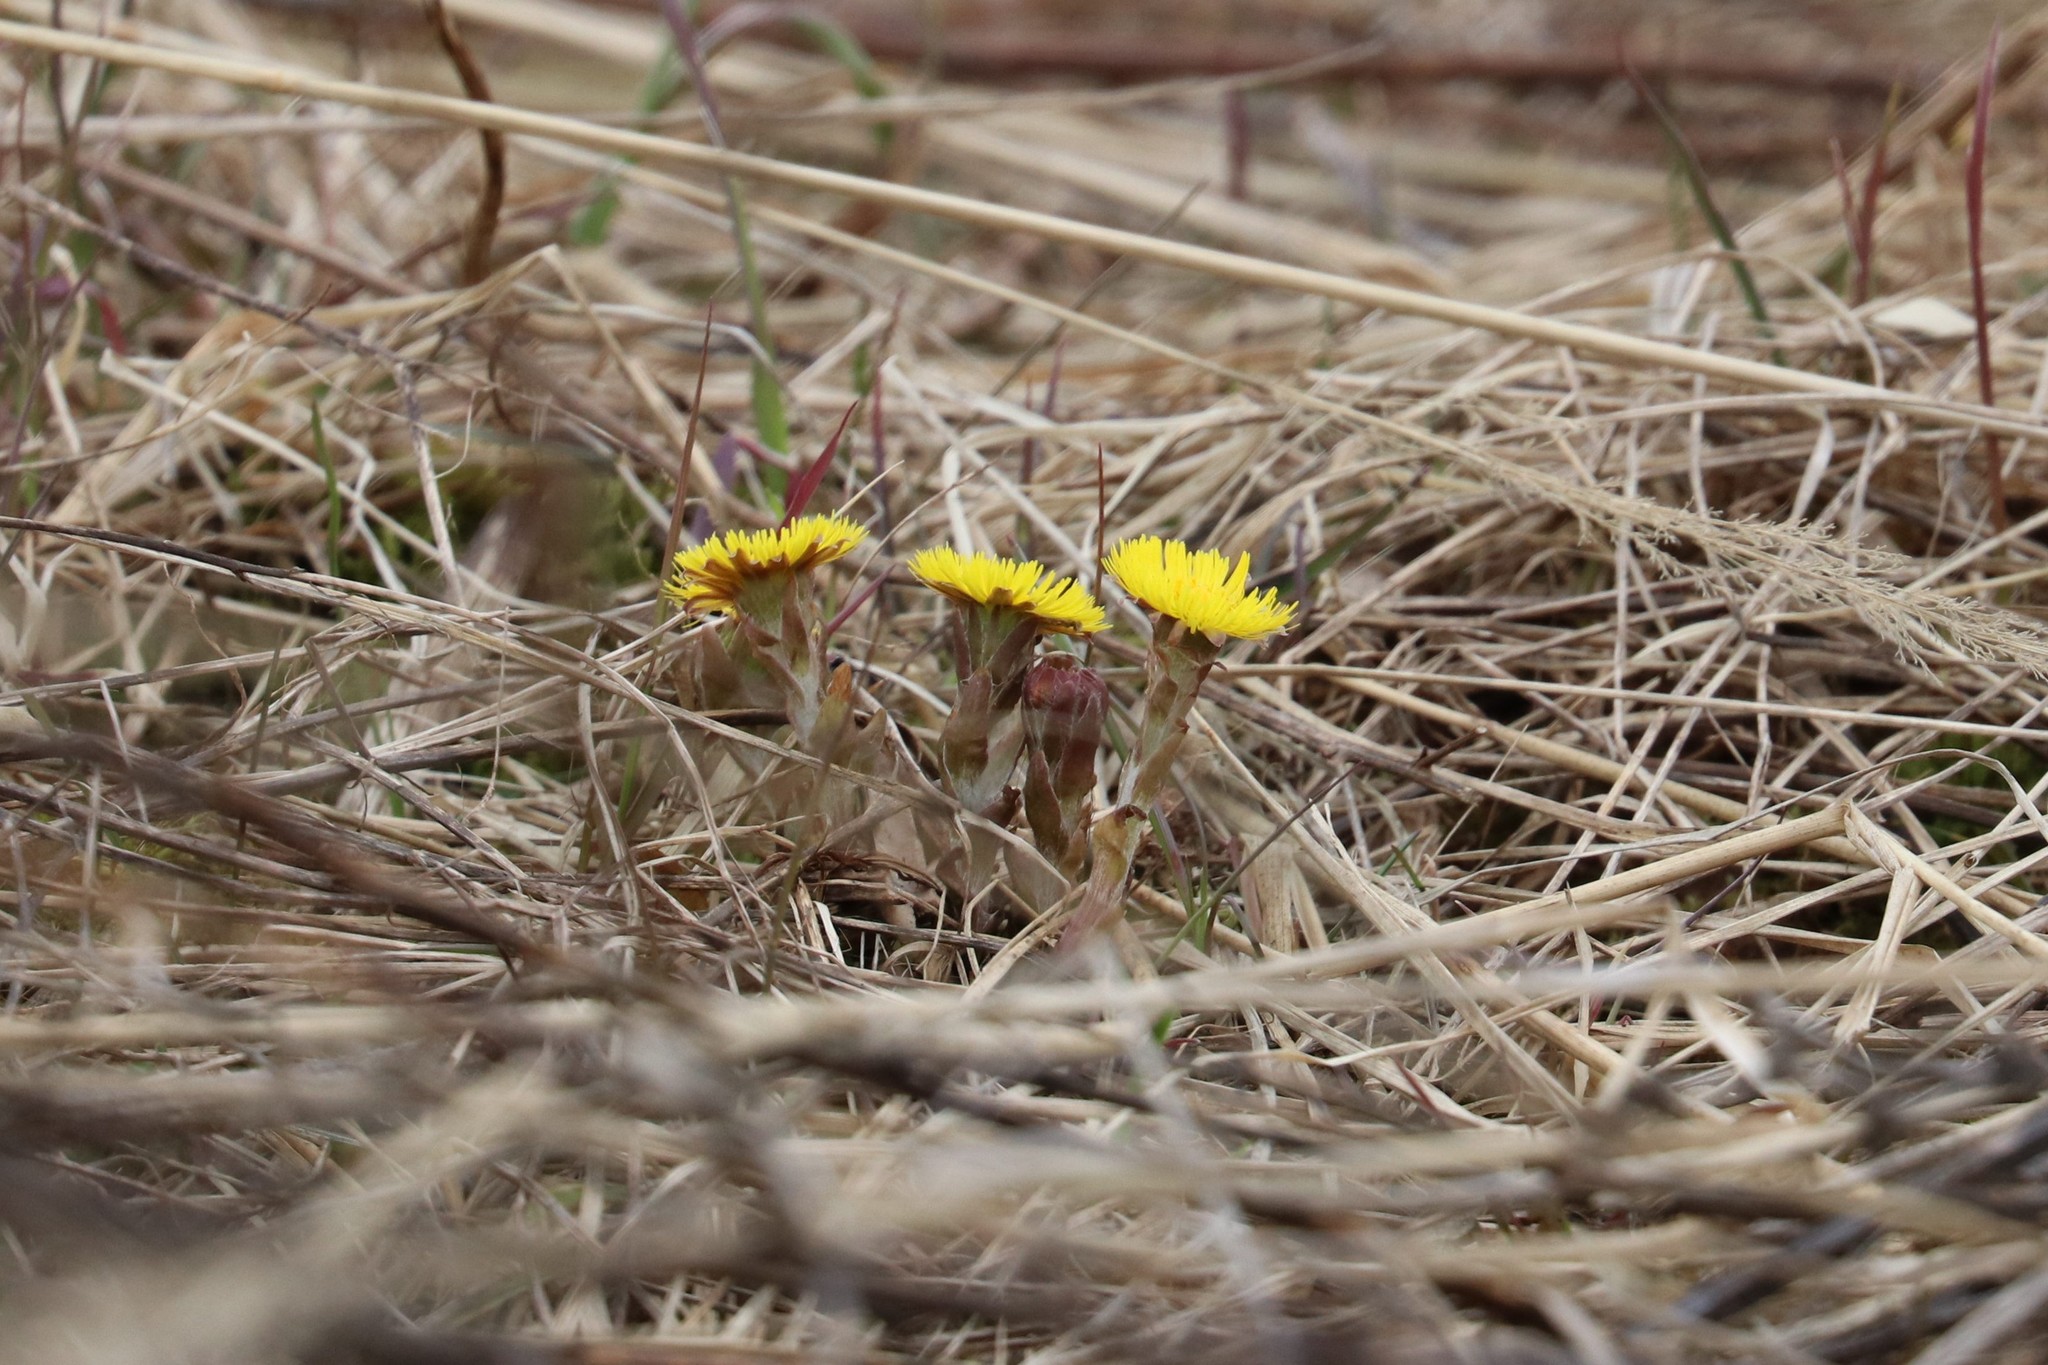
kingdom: Plantae
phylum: Tracheophyta
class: Magnoliopsida
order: Asterales
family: Asteraceae
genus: Tussilago
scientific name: Tussilago farfara
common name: Coltsfoot
